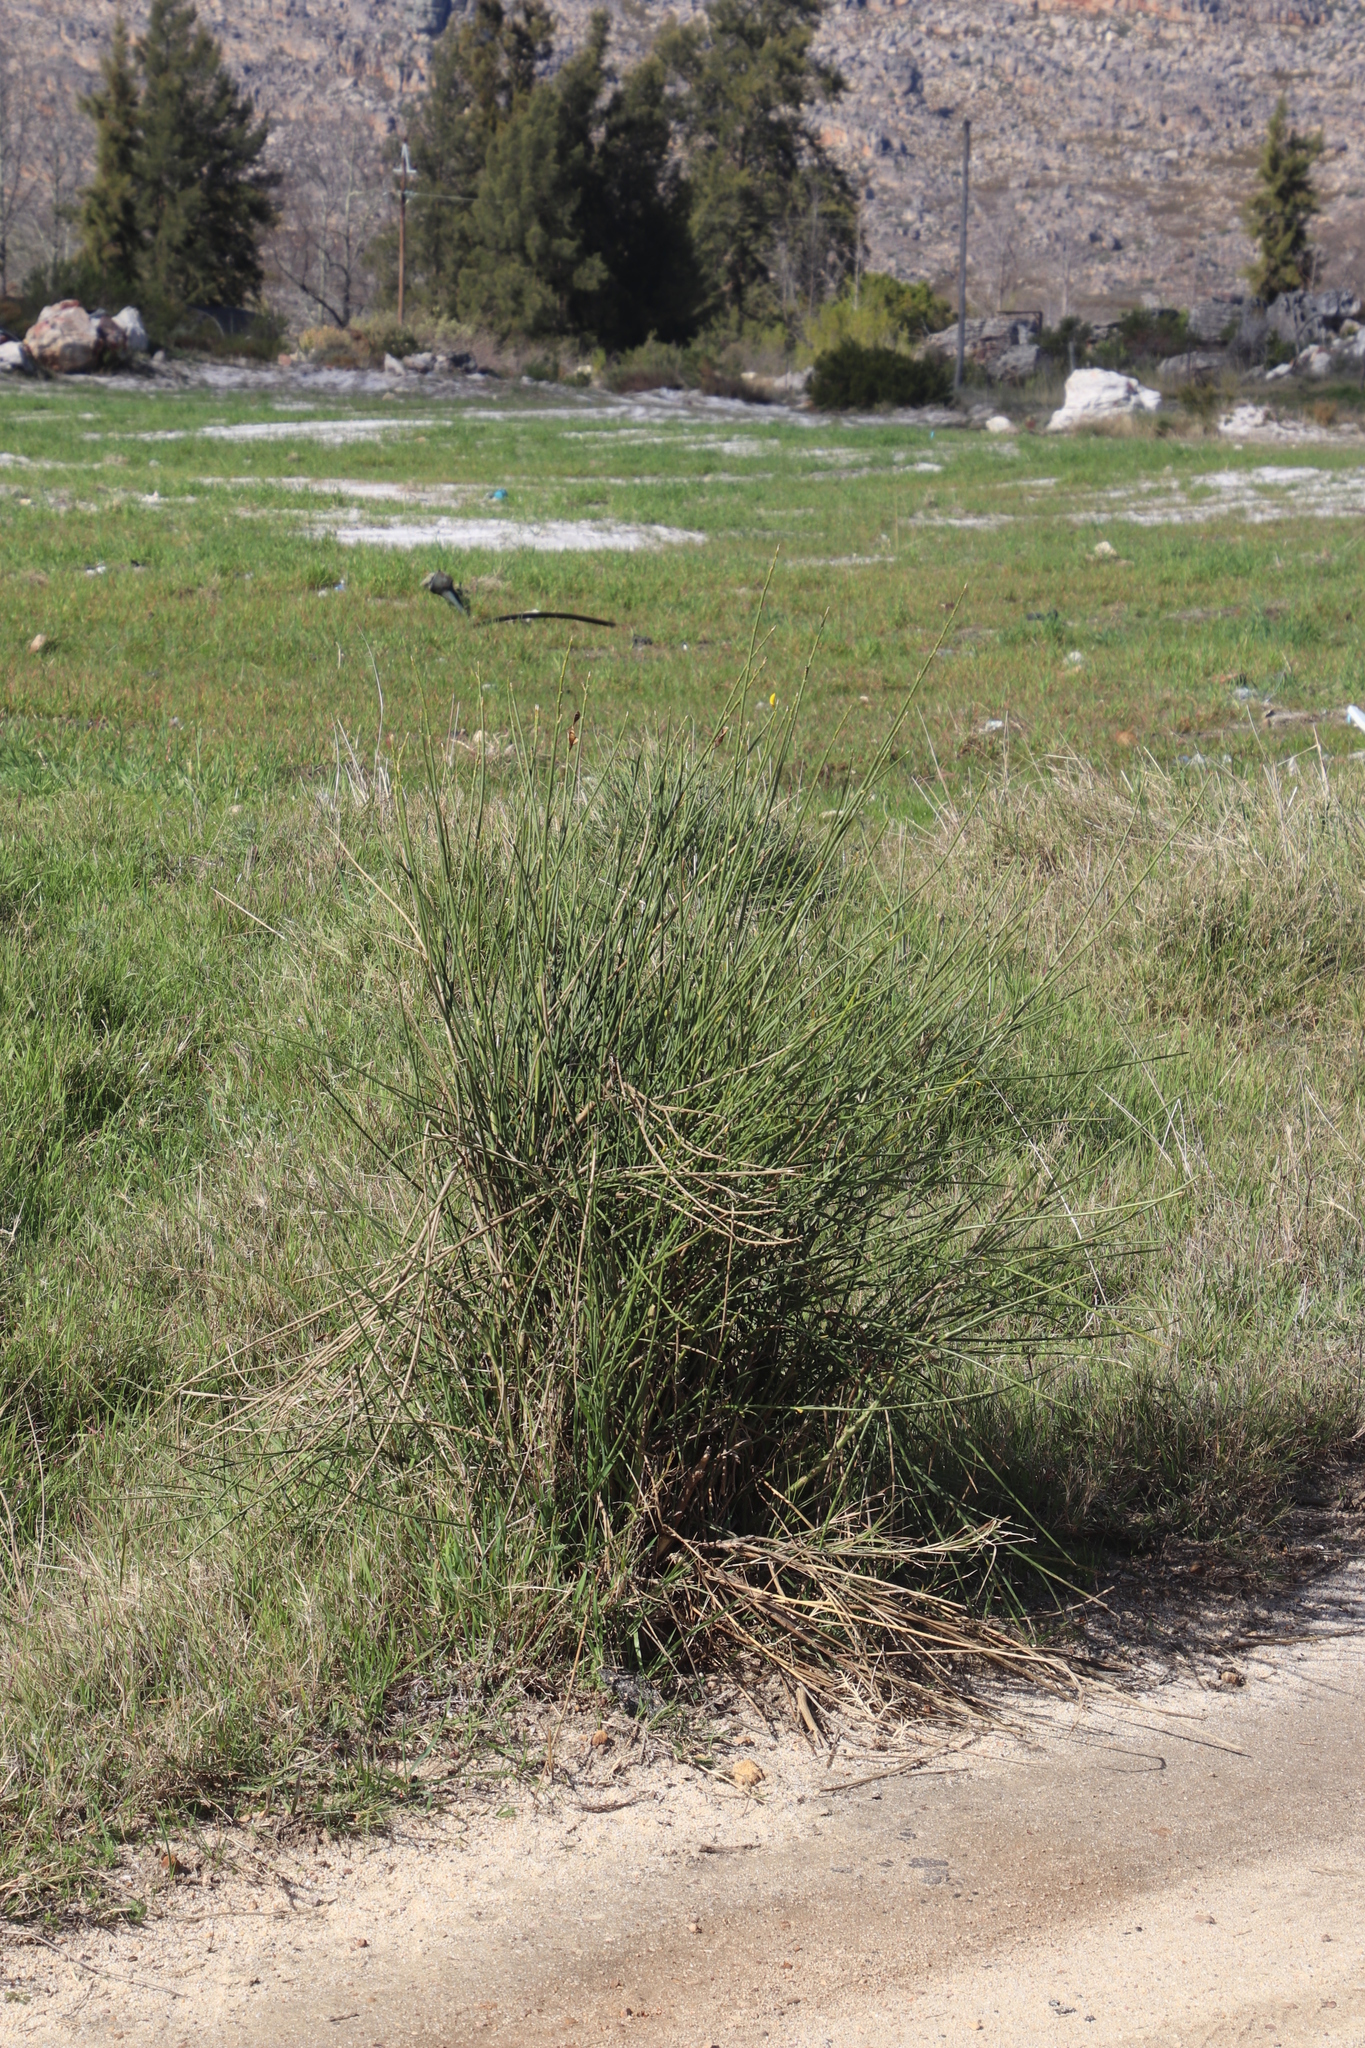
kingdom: Plantae
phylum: Tracheophyta
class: Magnoliopsida
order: Fabales
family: Fabaceae
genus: Spartium
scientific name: Spartium junceum
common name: Spanish broom
